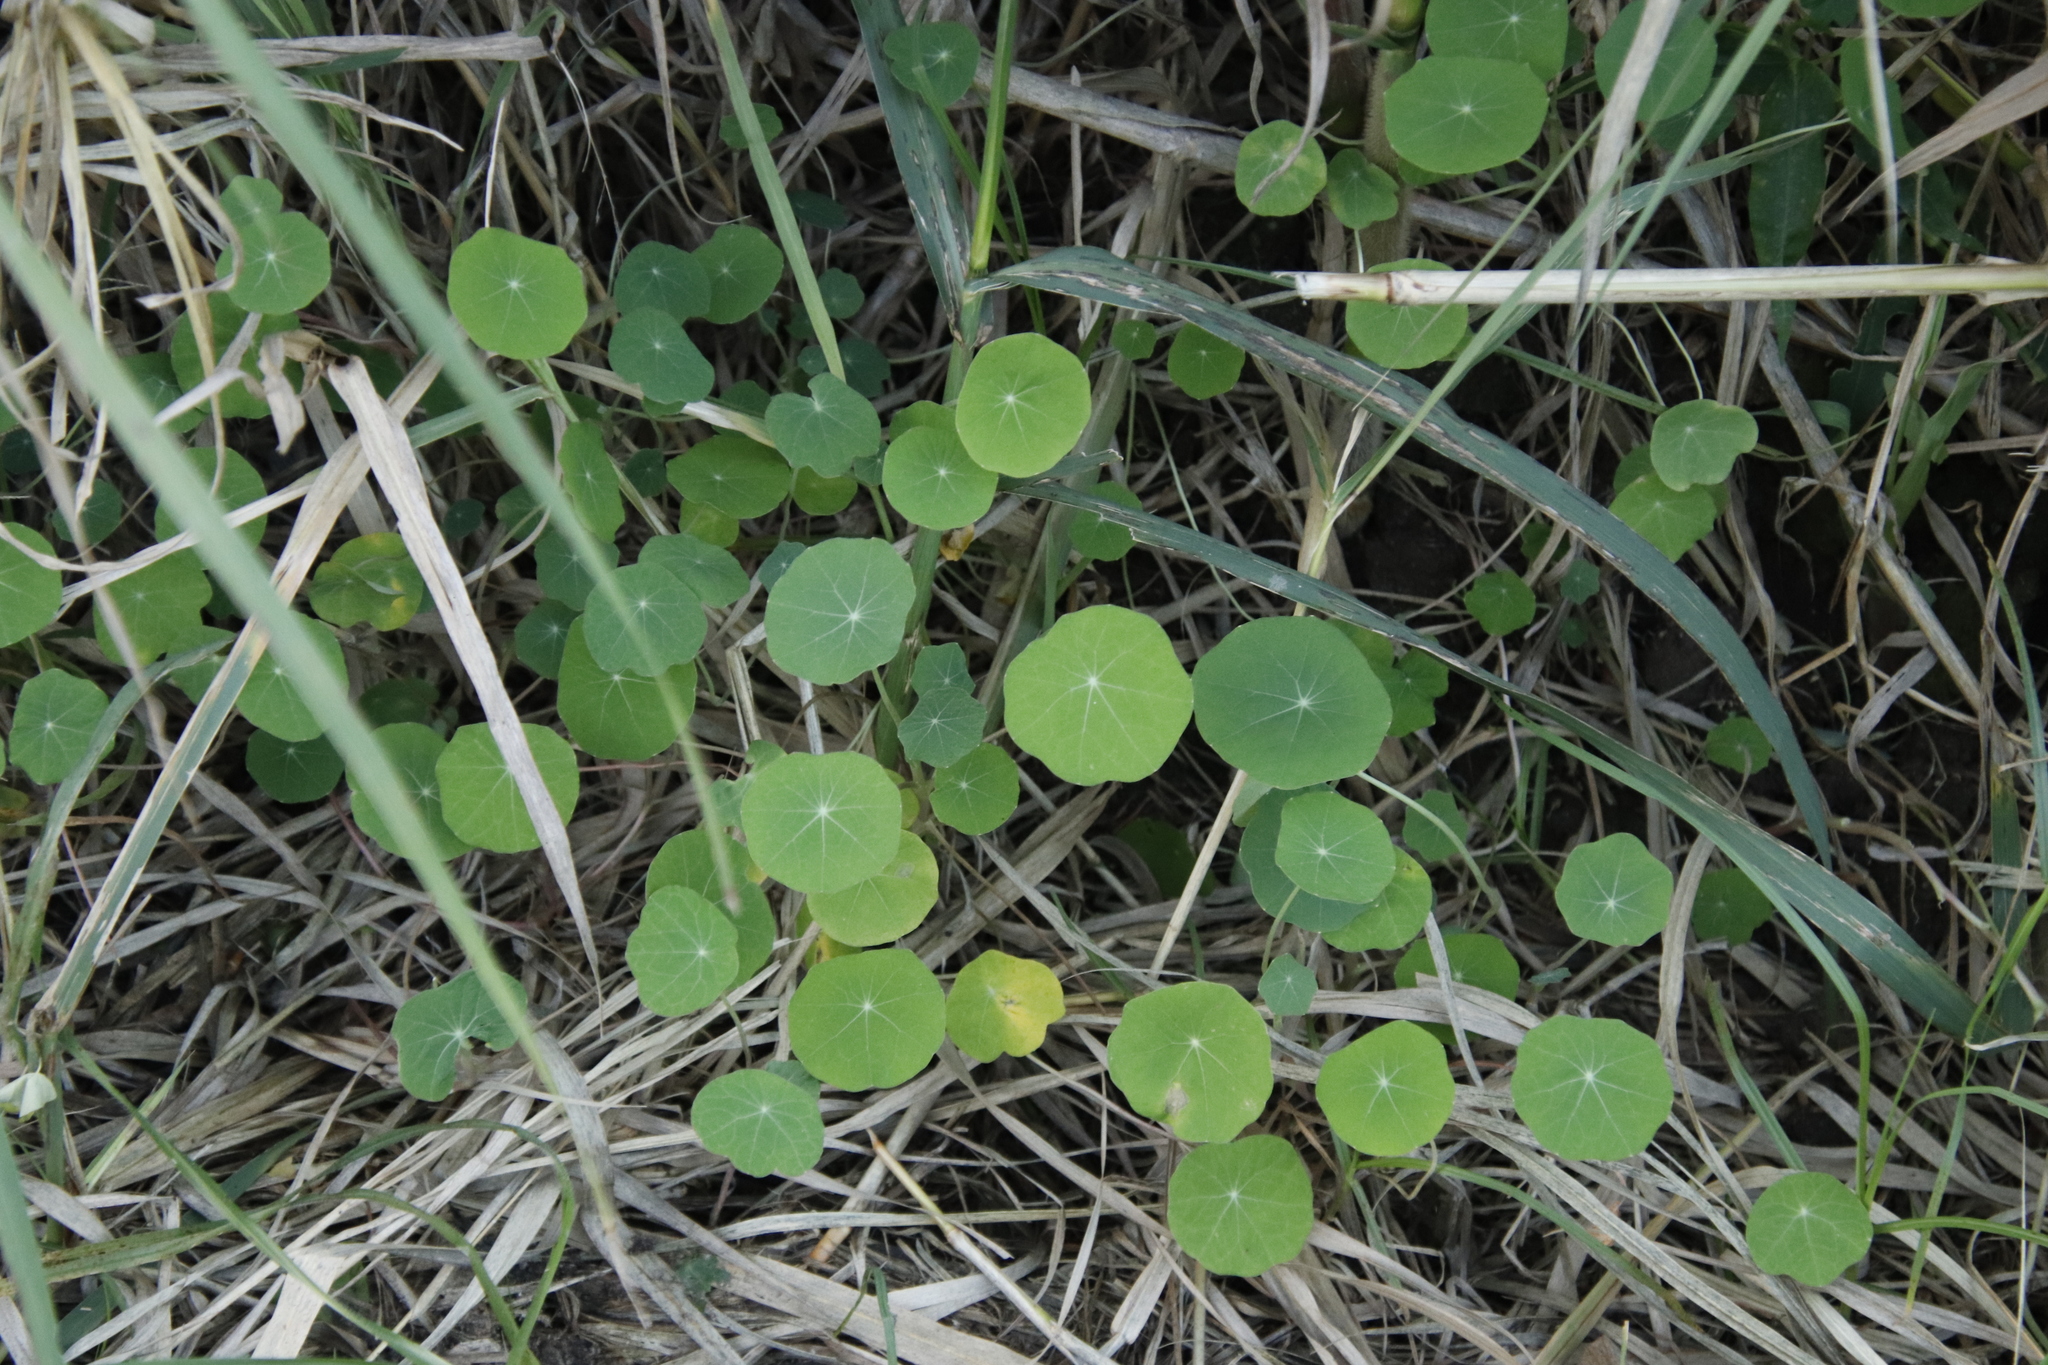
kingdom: Plantae
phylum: Tracheophyta
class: Magnoliopsida
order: Brassicales
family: Tropaeolaceae
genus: Tropaeolum
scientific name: Tropaeolum majus
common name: Nasturtium
